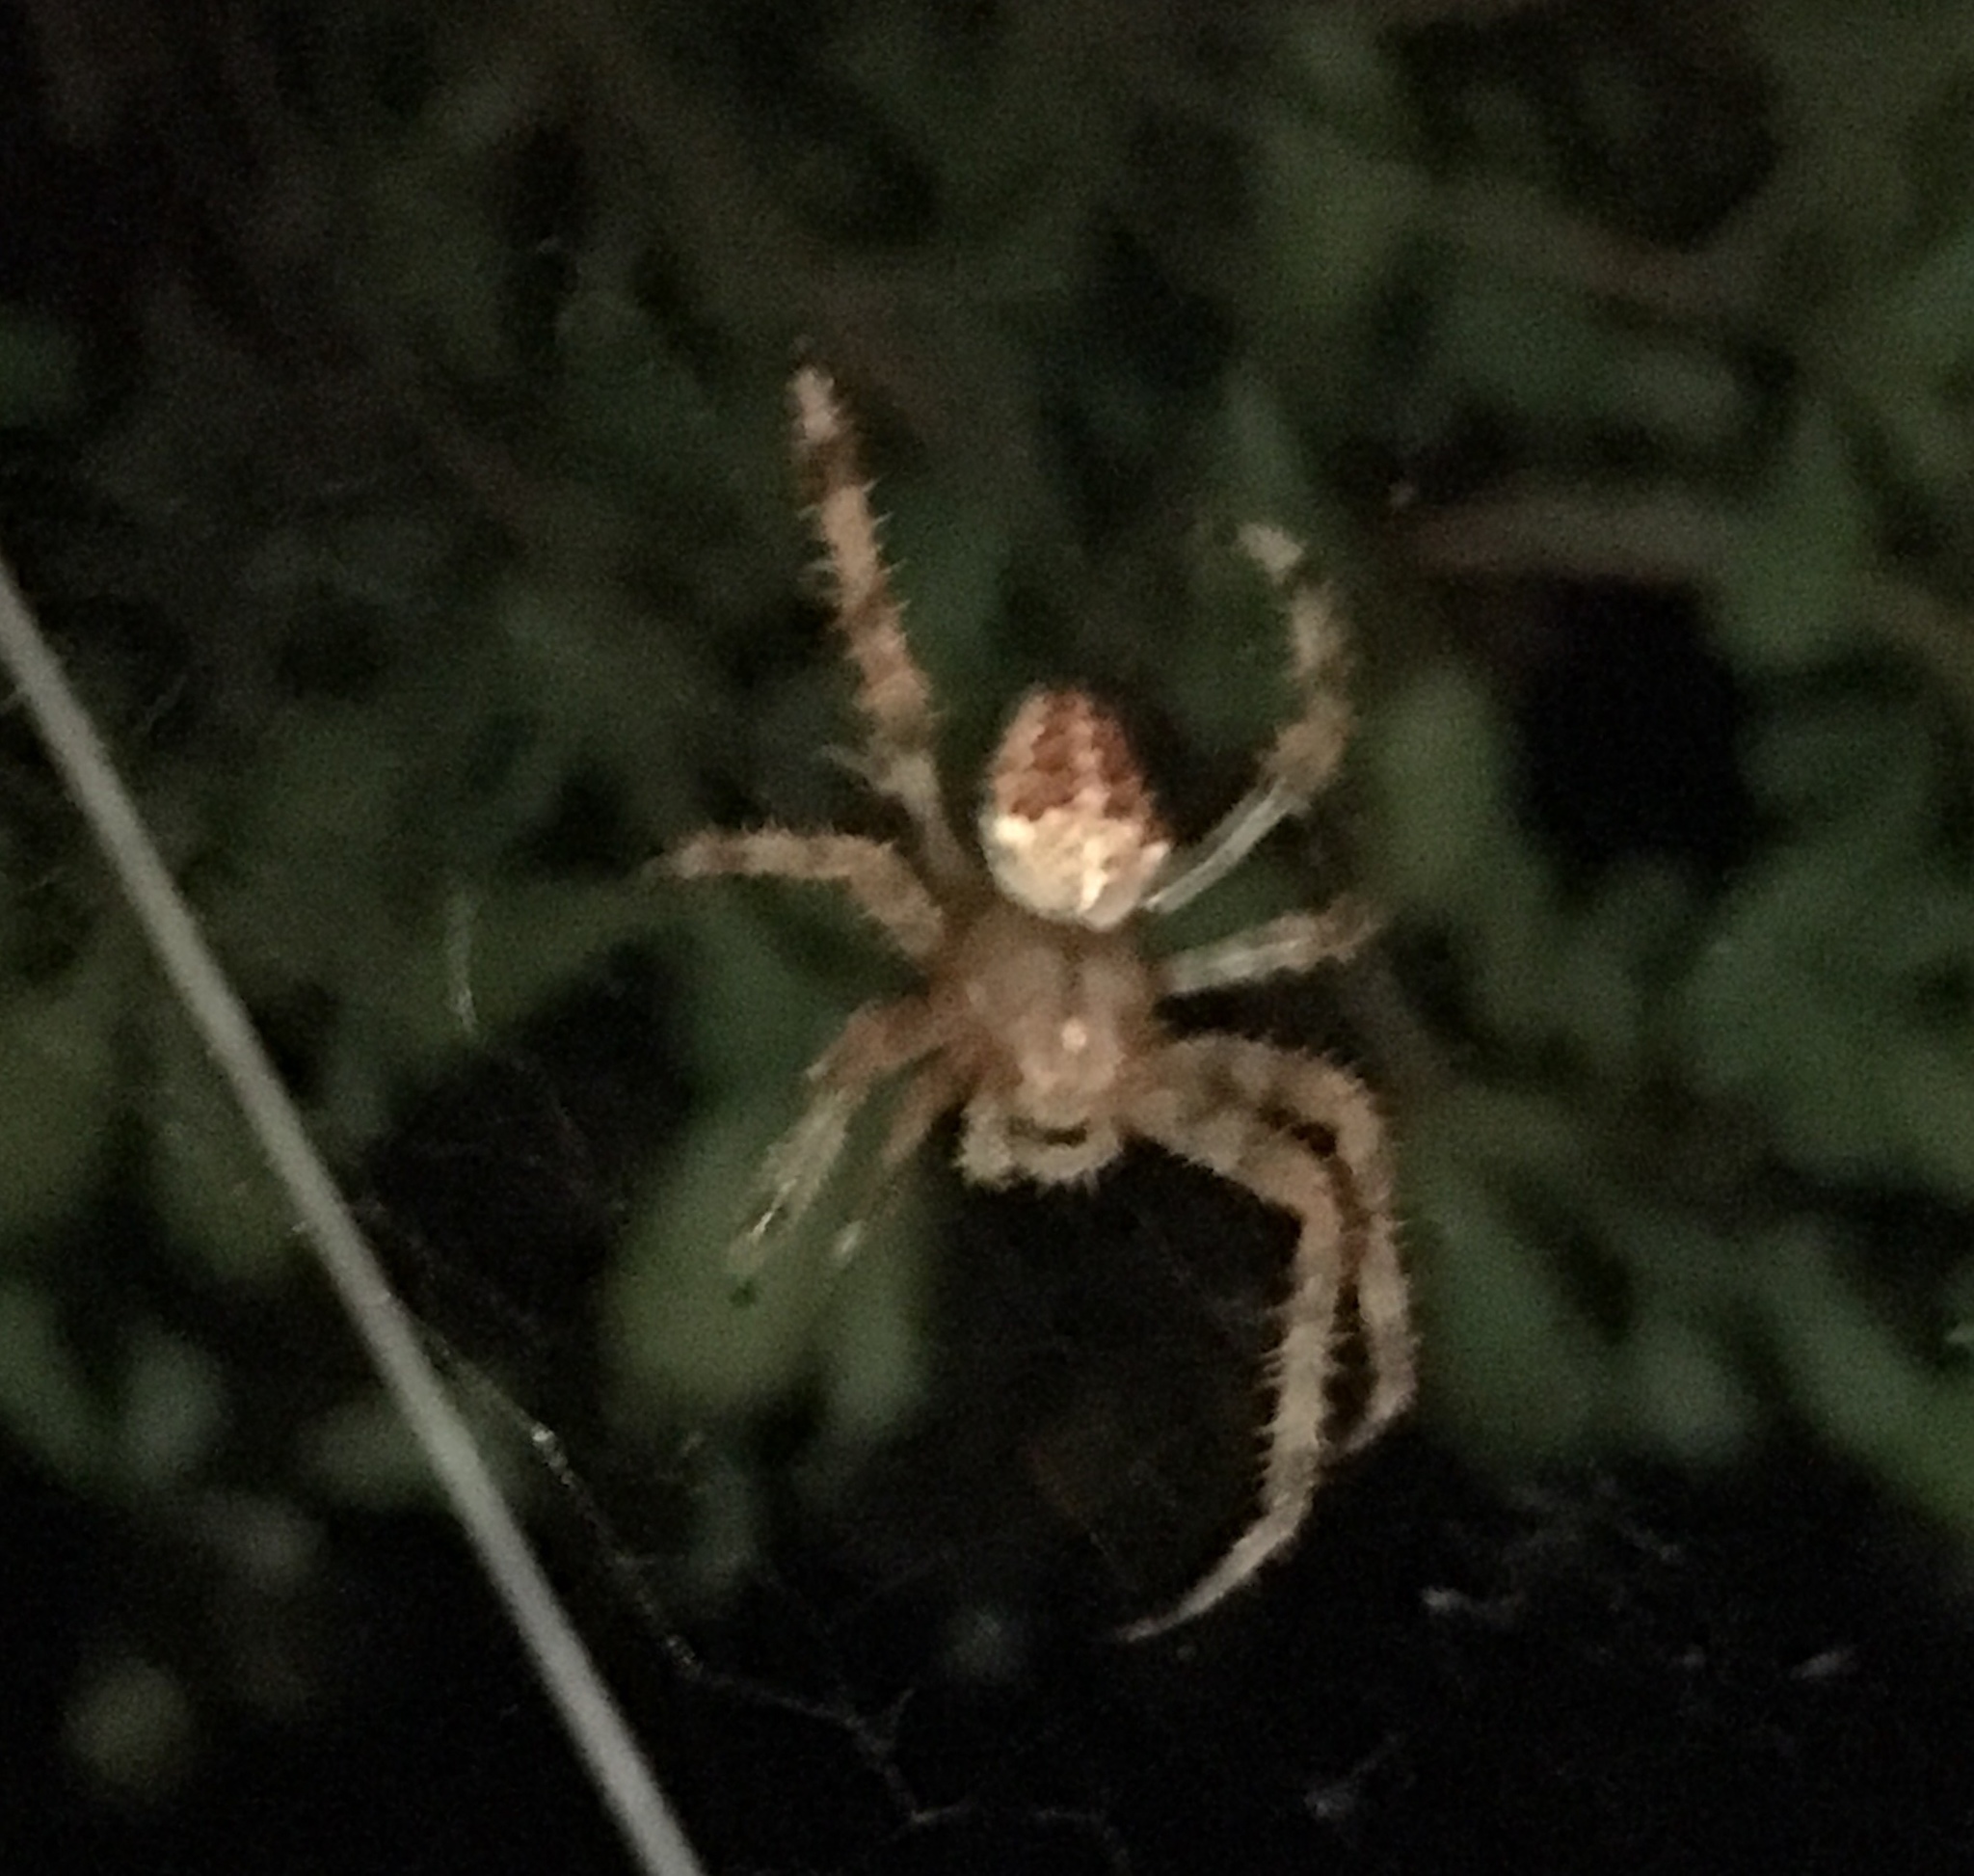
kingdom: Animalia
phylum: Arthropoda
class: Arachnida
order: Araneae
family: Araneidae
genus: Araneus
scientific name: Araneus diadematus
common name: Cross orbweaver
